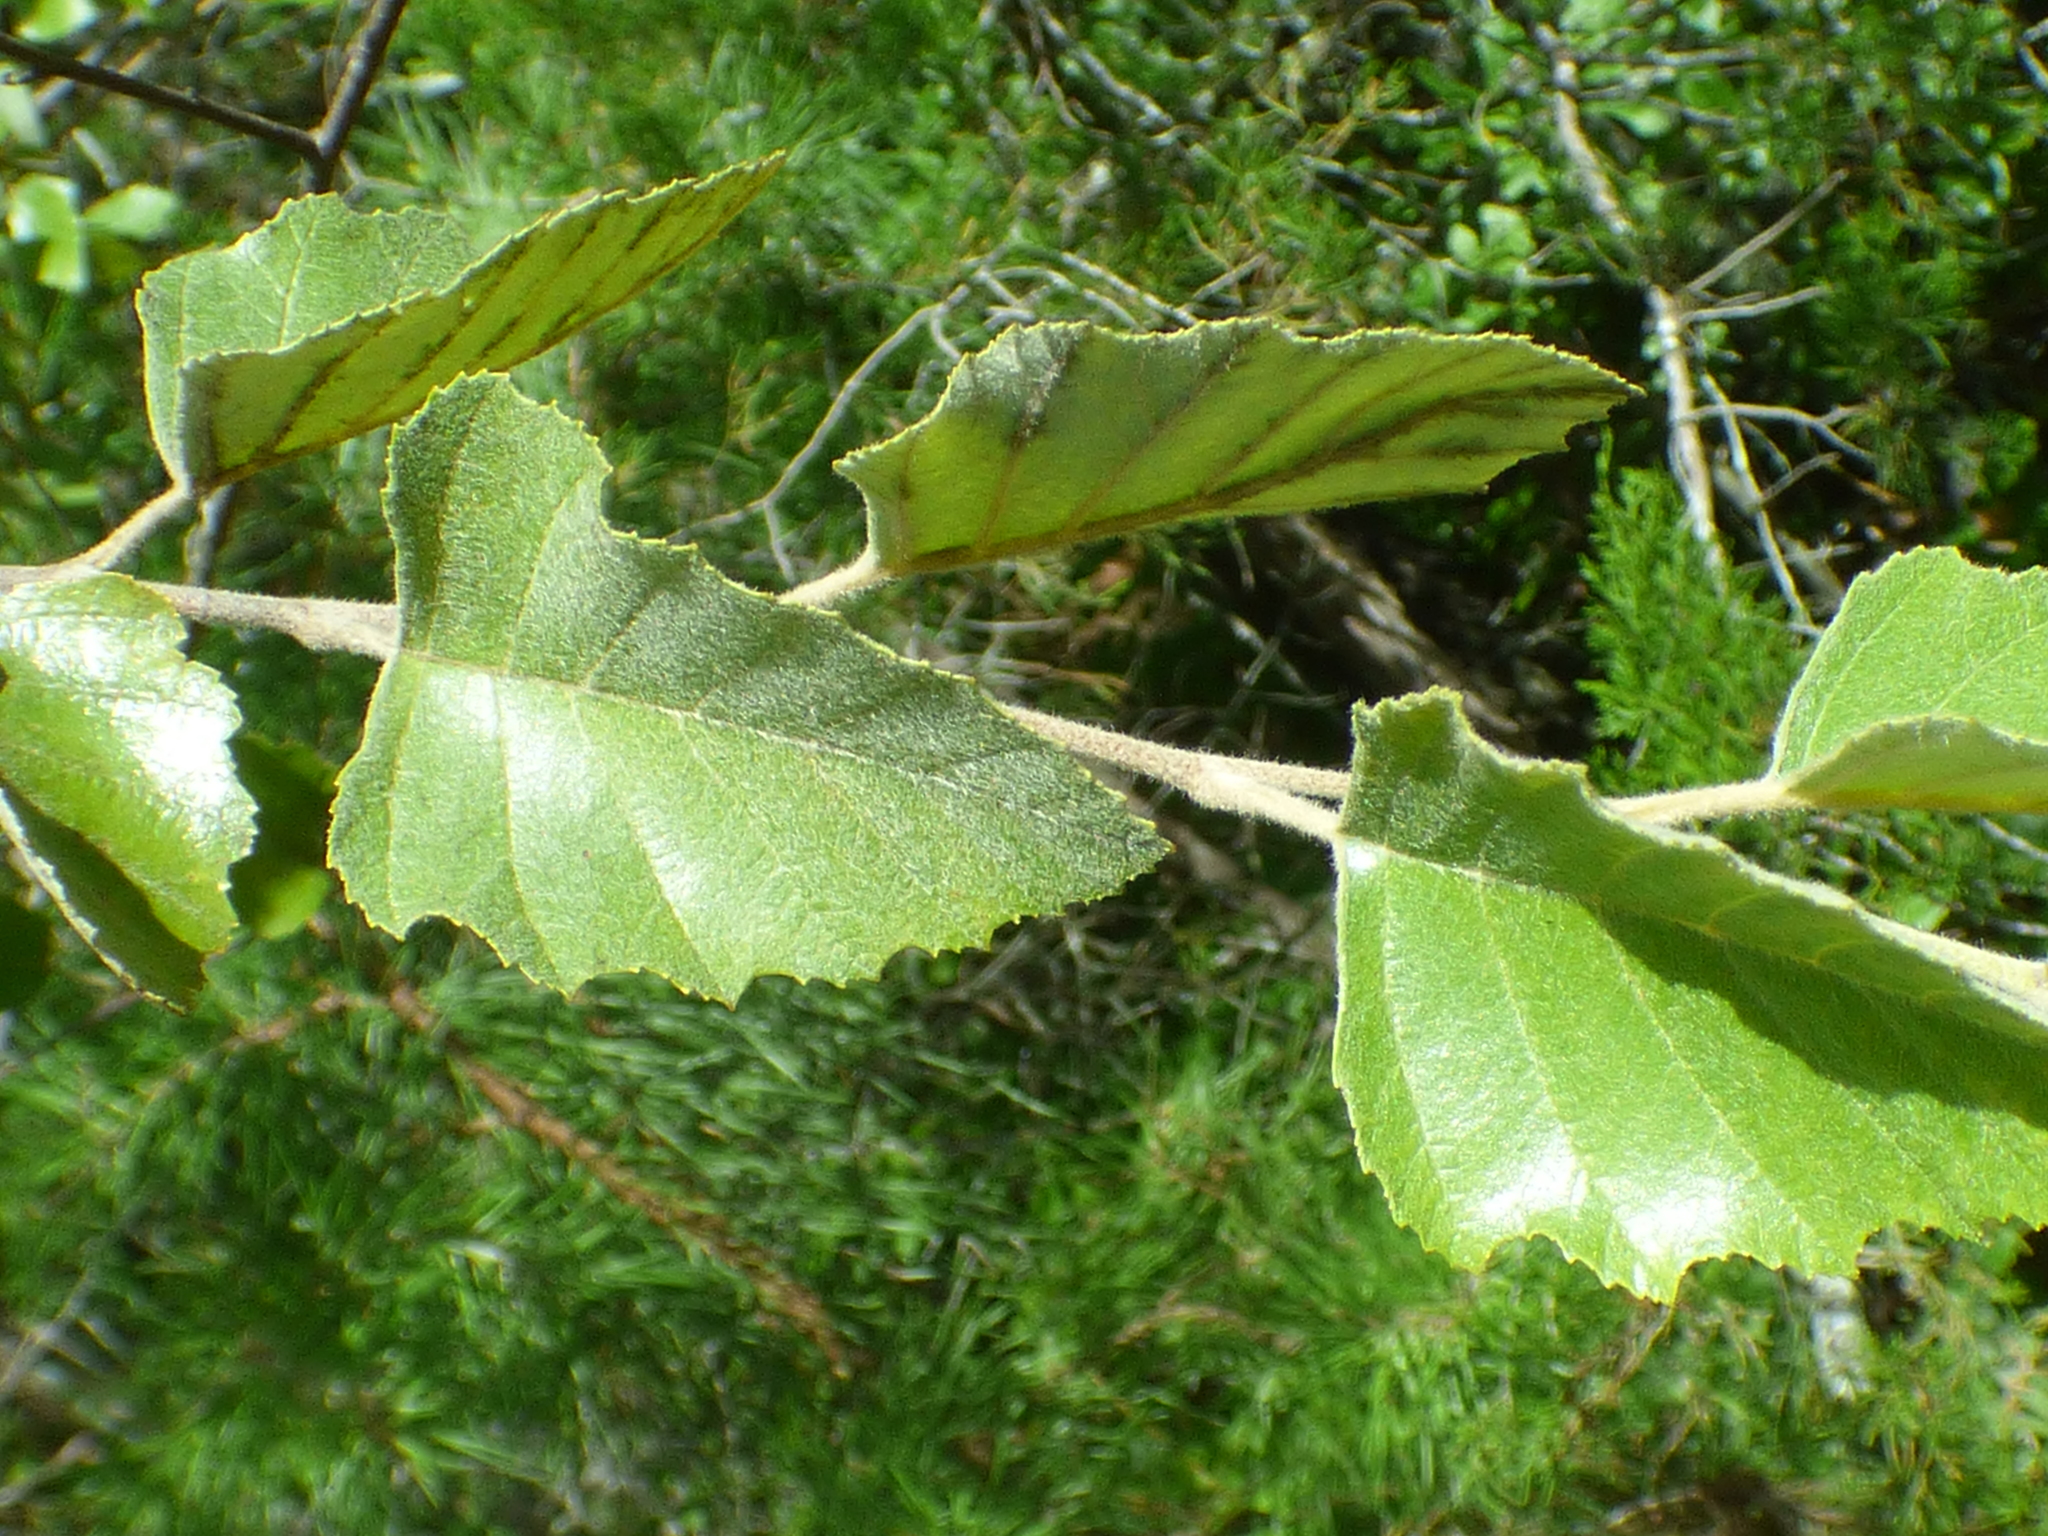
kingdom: Plantae
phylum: Tracheophyta
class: Magnoliopsida
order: Fagales
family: Betulaceae
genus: Betula
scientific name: Betula nigra
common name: Black birch
